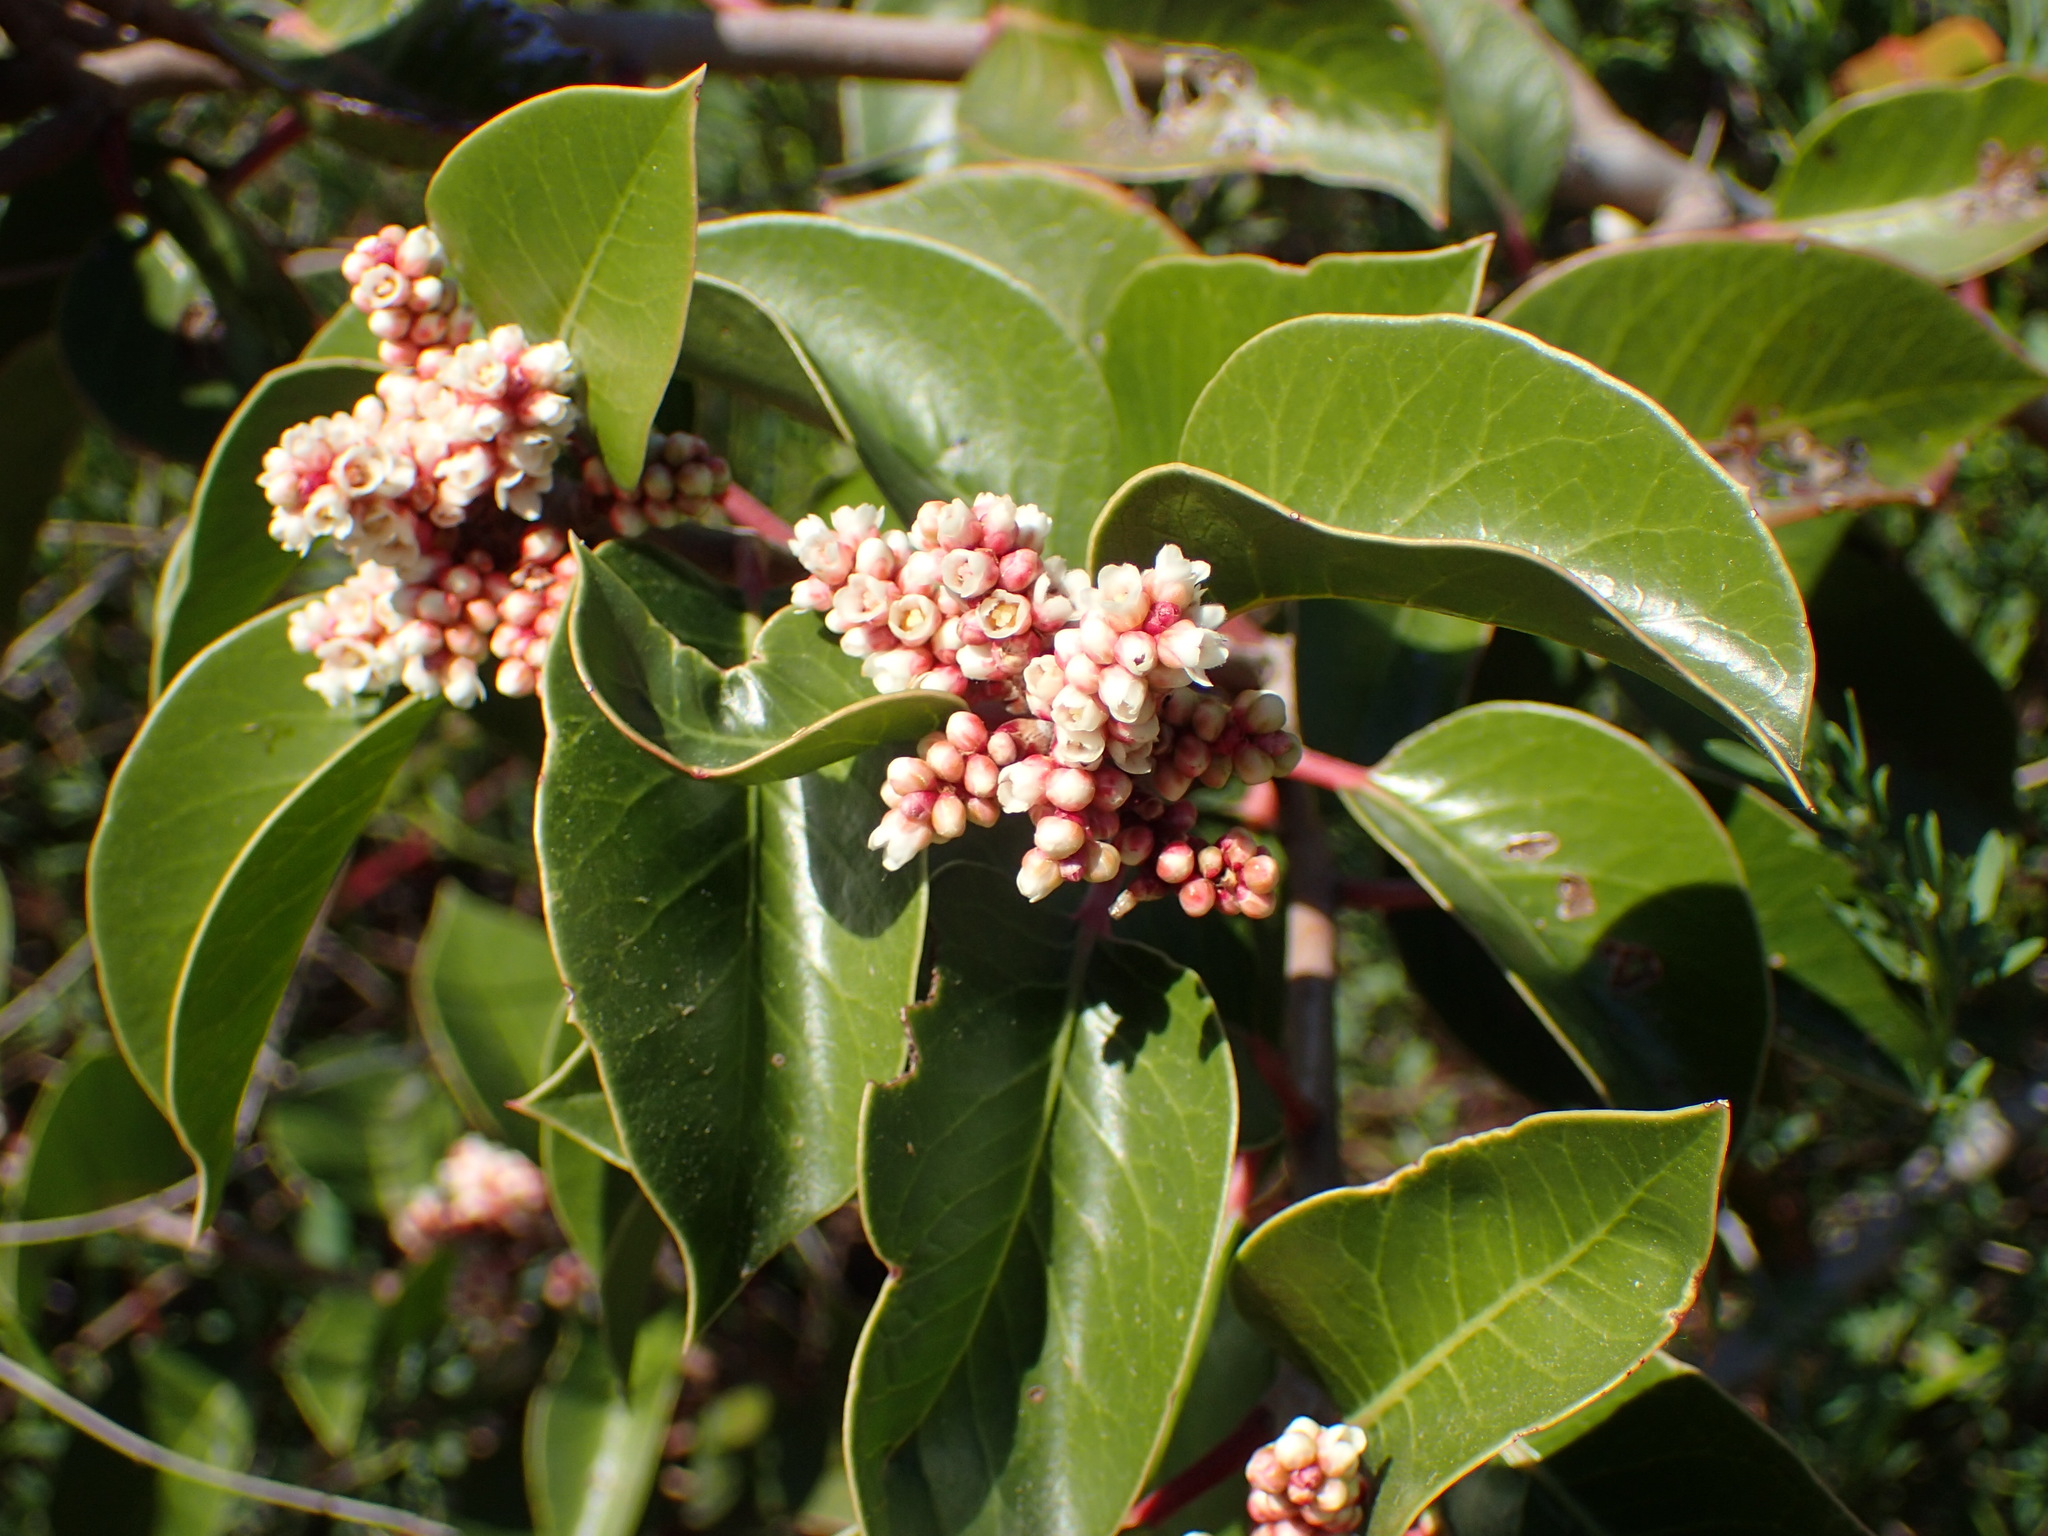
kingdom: Plantae
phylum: Tracheophyta
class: Magnoliopsida
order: Sapindales
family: Anacardiaceae
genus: Rhus
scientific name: Rhus ovata
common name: Sugar sumac
